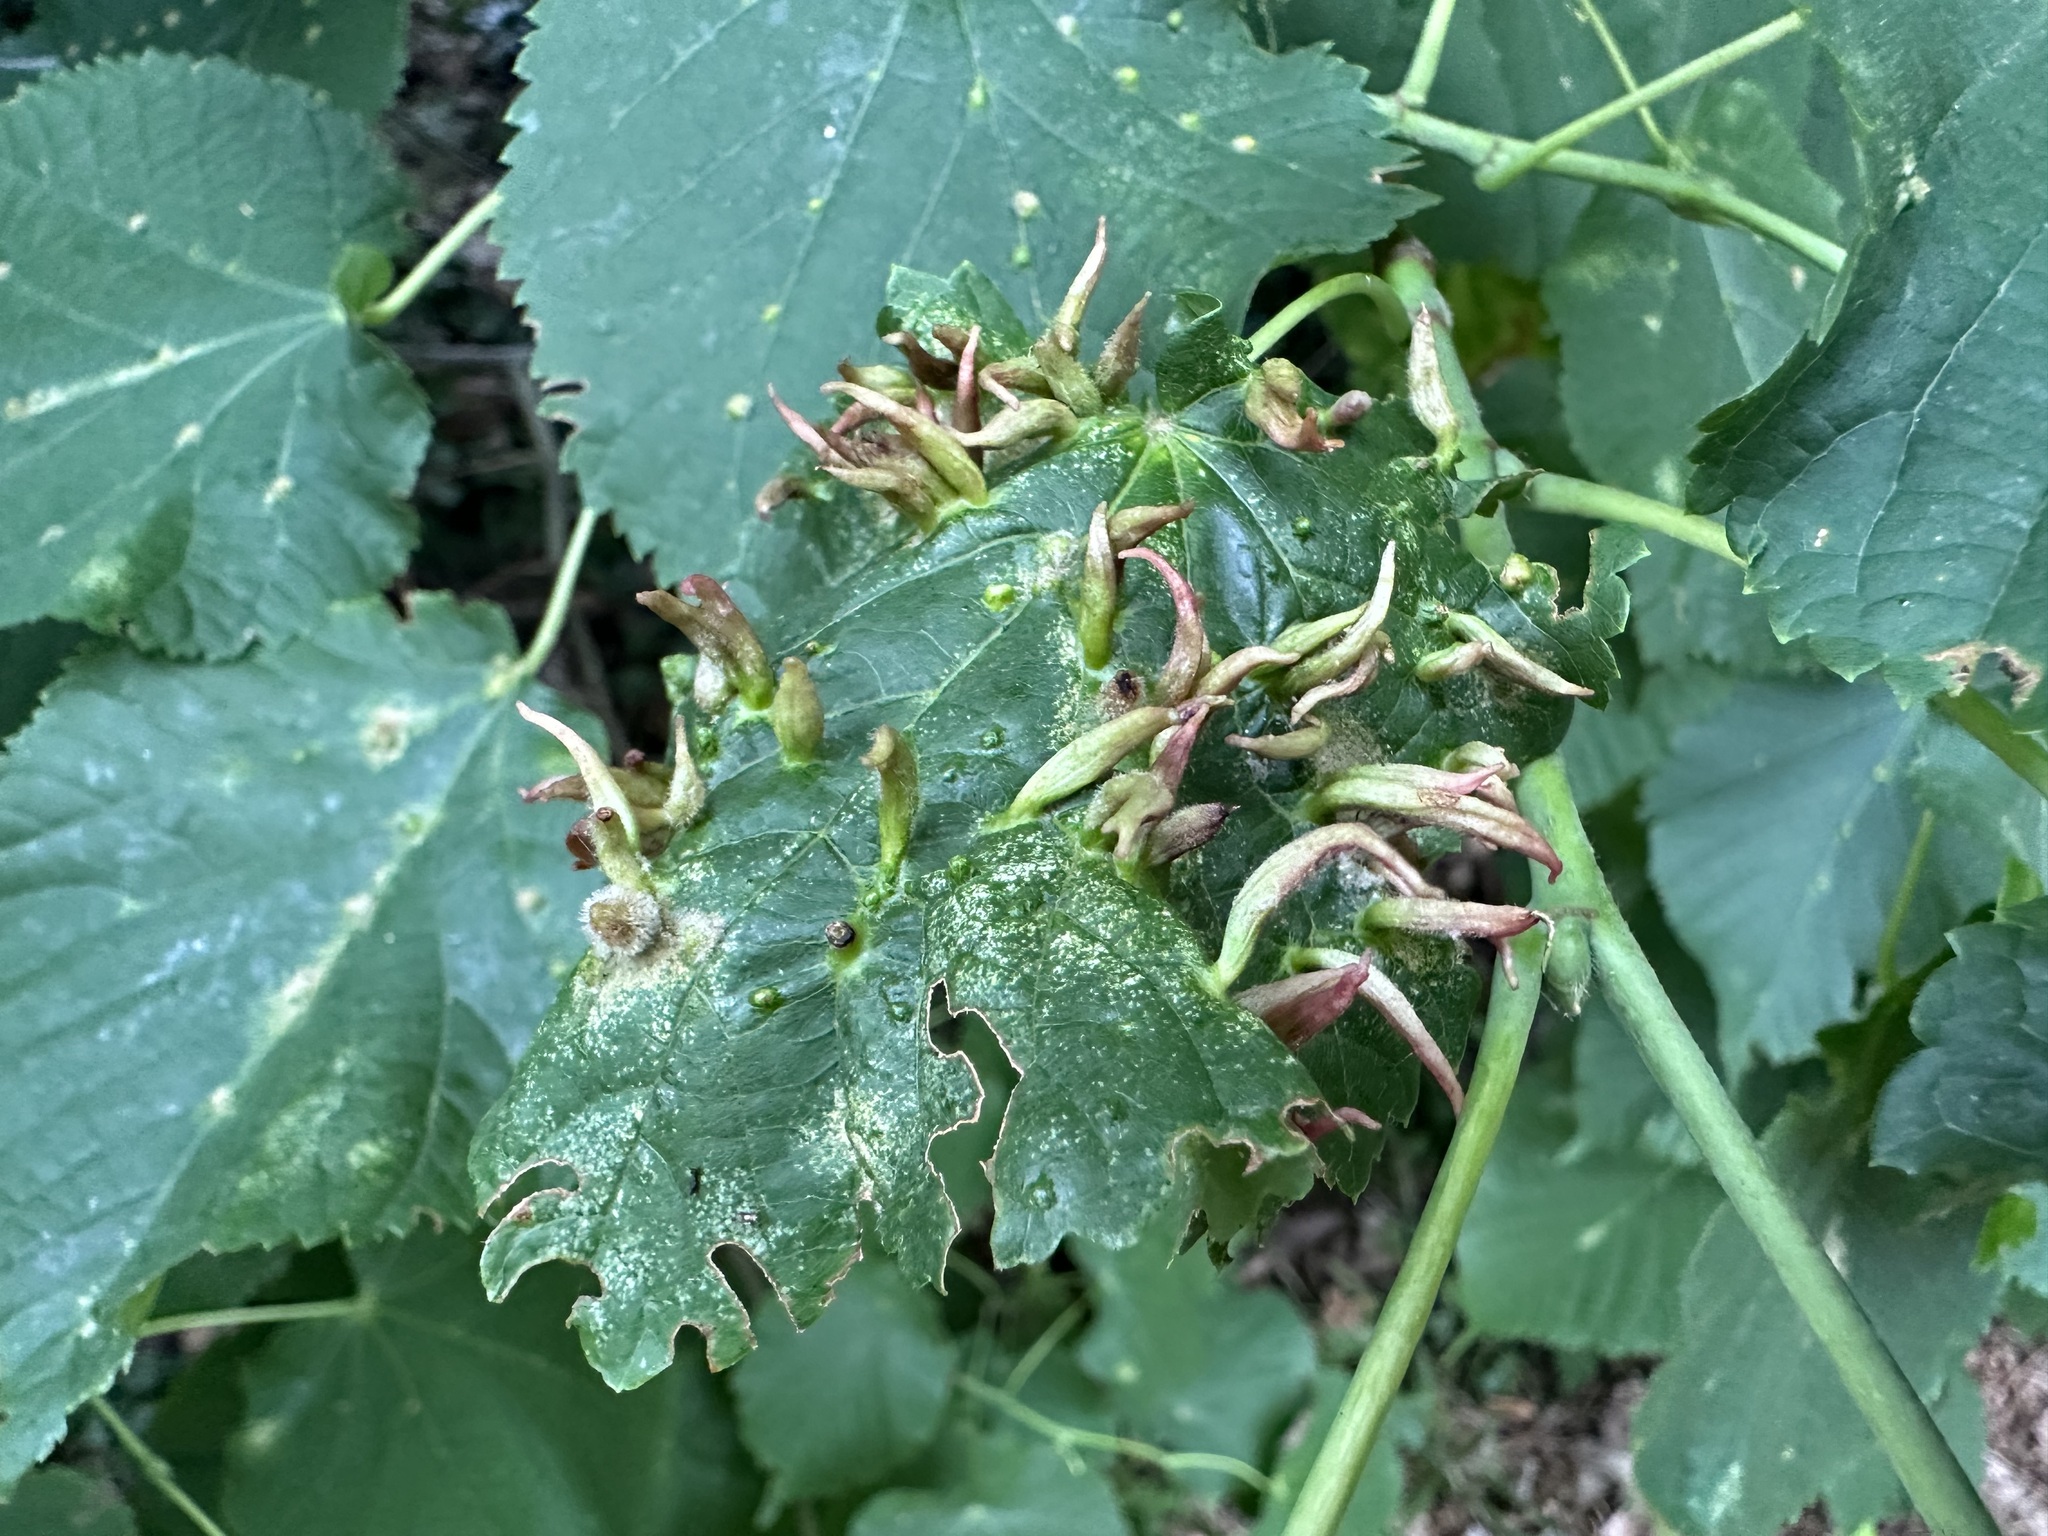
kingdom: Animalia
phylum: Arthropoda
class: Arachnida
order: Trombidiformes
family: Eriophyidae
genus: Eriophyes
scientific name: Eriophyes tiliae
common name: Red nail gall mite
